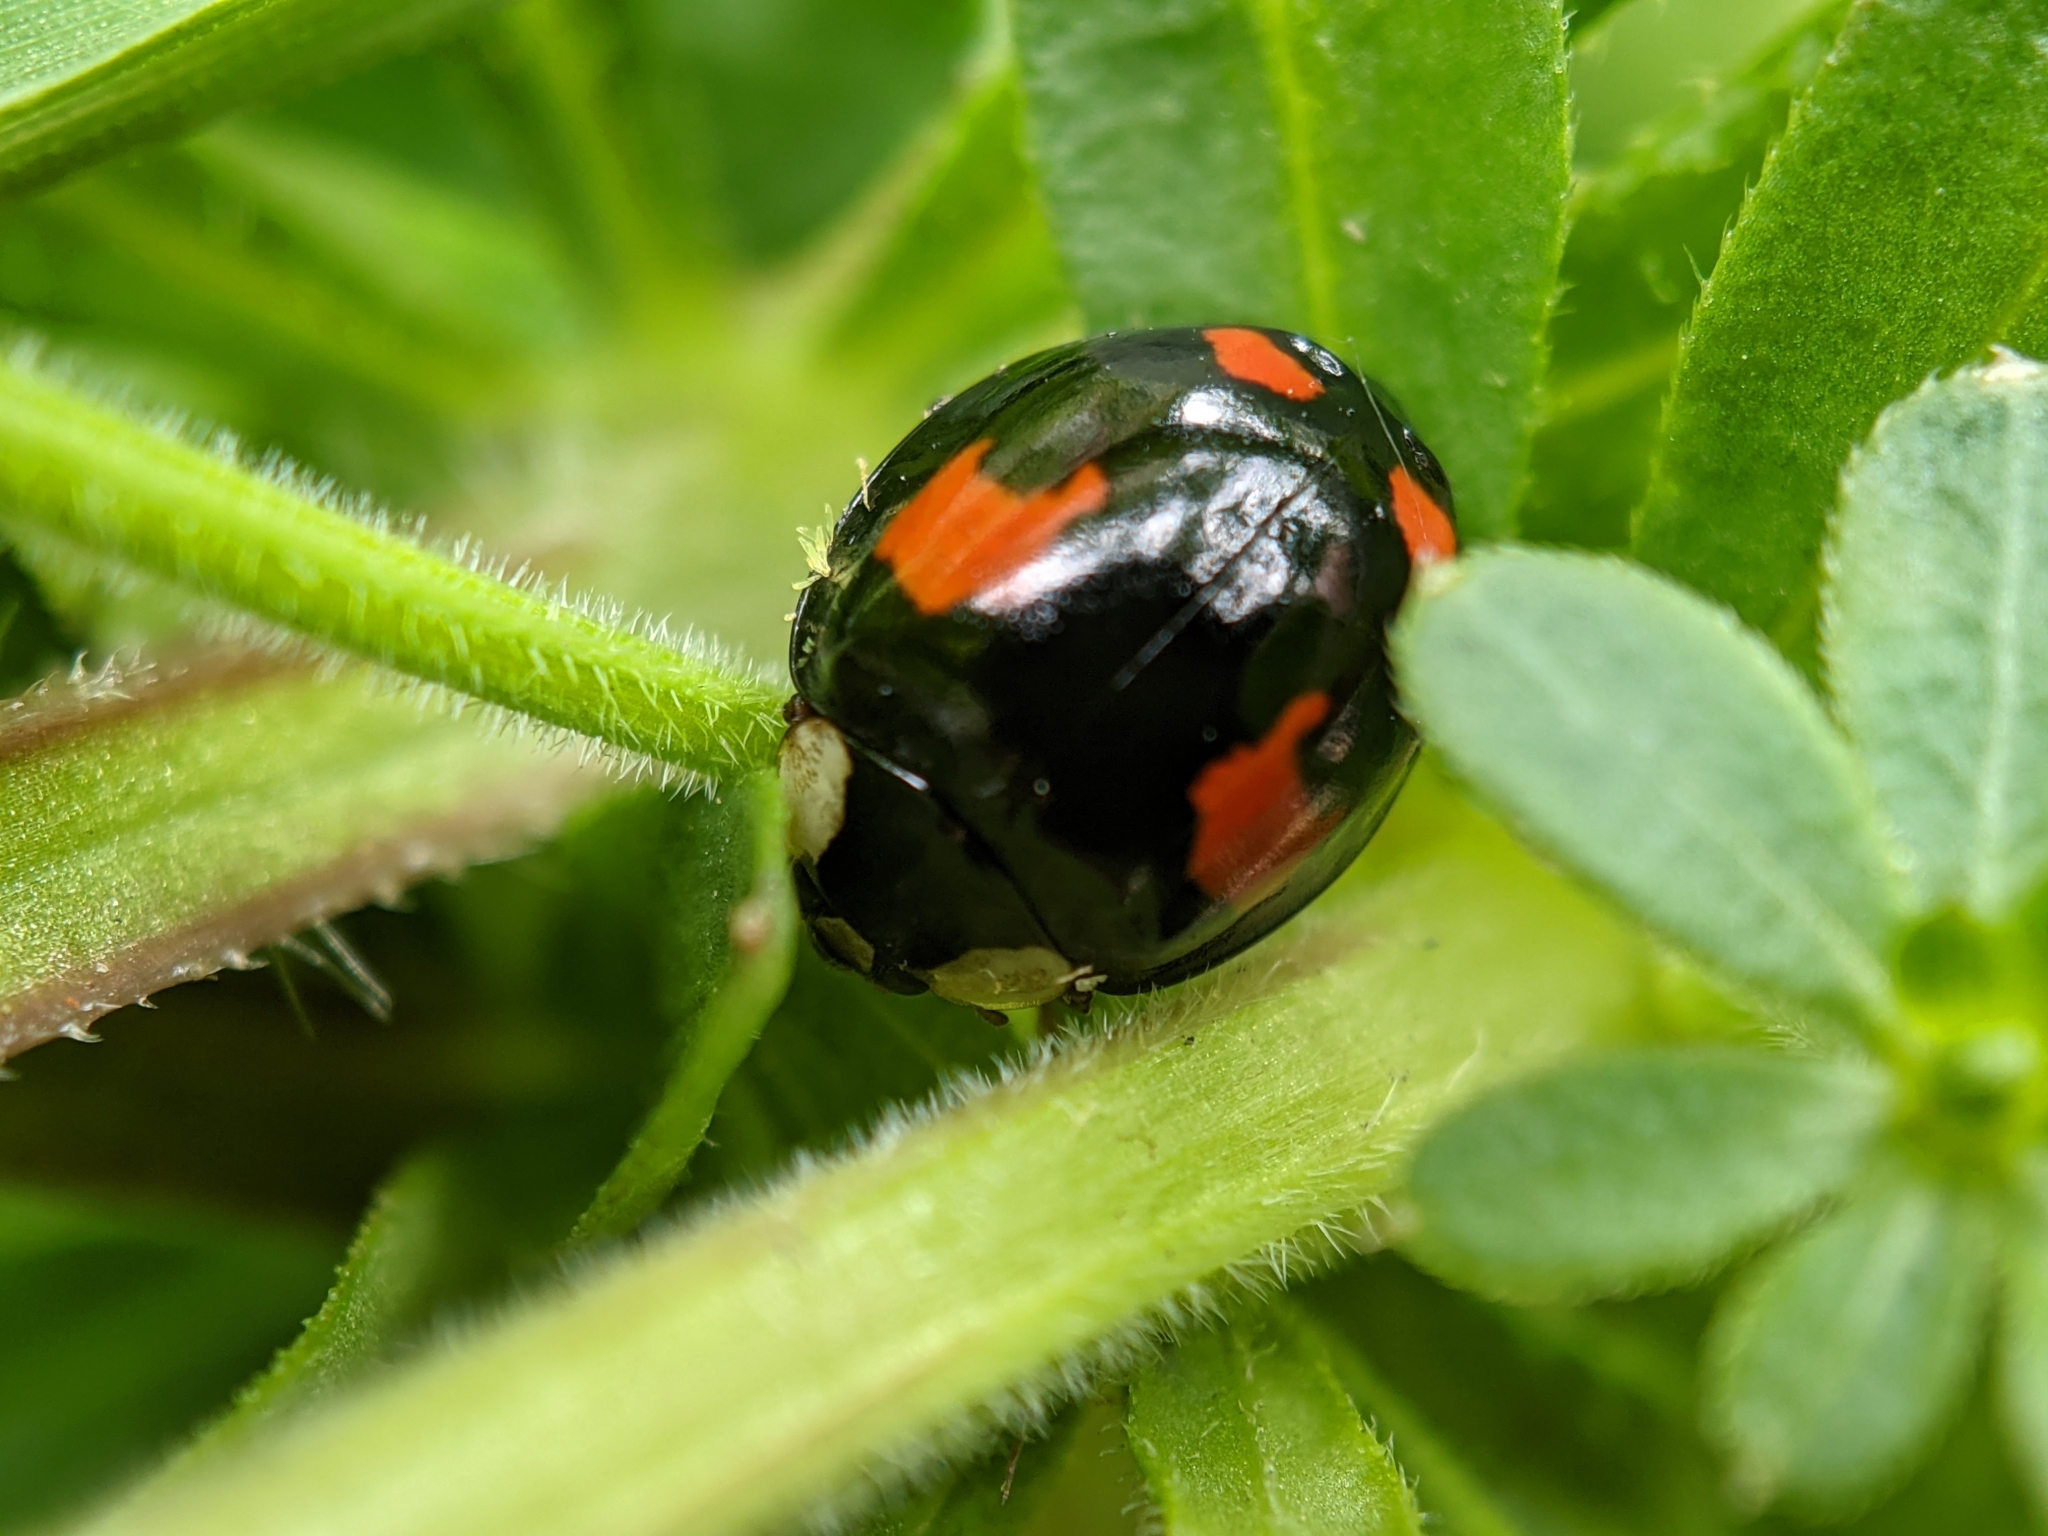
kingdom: Animalia
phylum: Arthropoda
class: Insecta
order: Coleoptera
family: Coccinellidae
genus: Harmonia
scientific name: Harmonia axyridis
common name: Harlequin ladybird
